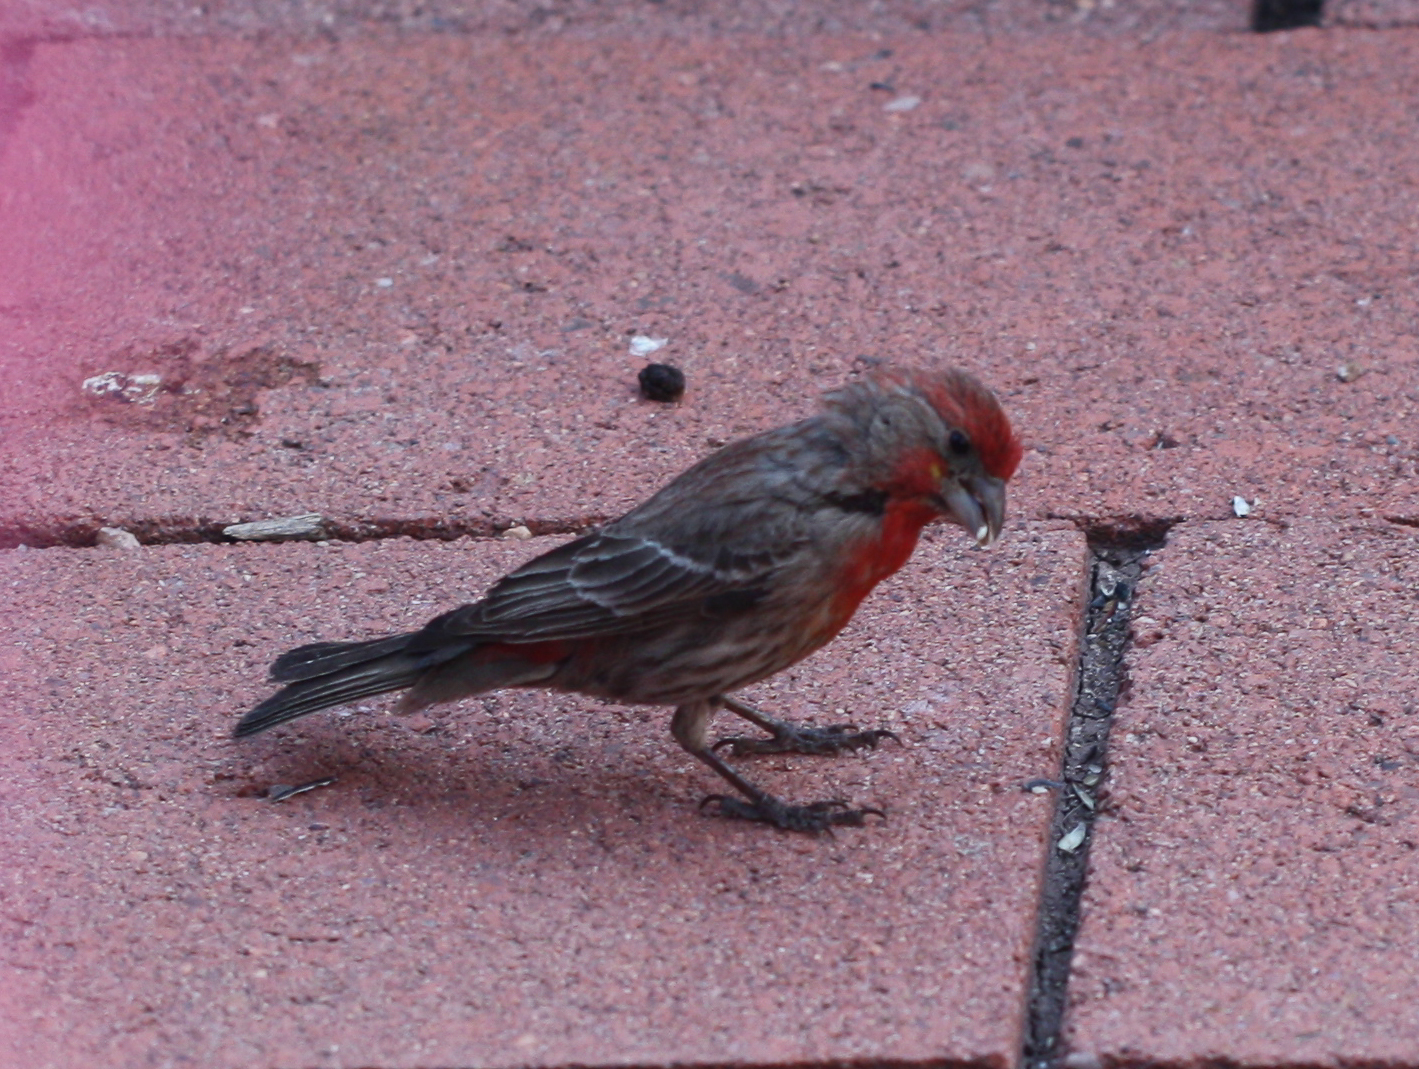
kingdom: Animalia
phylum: Chordata
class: Aves
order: Passeriformes
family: Fringillidae
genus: Haemorhous
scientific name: Haemorhous mexicanus
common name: House finch
